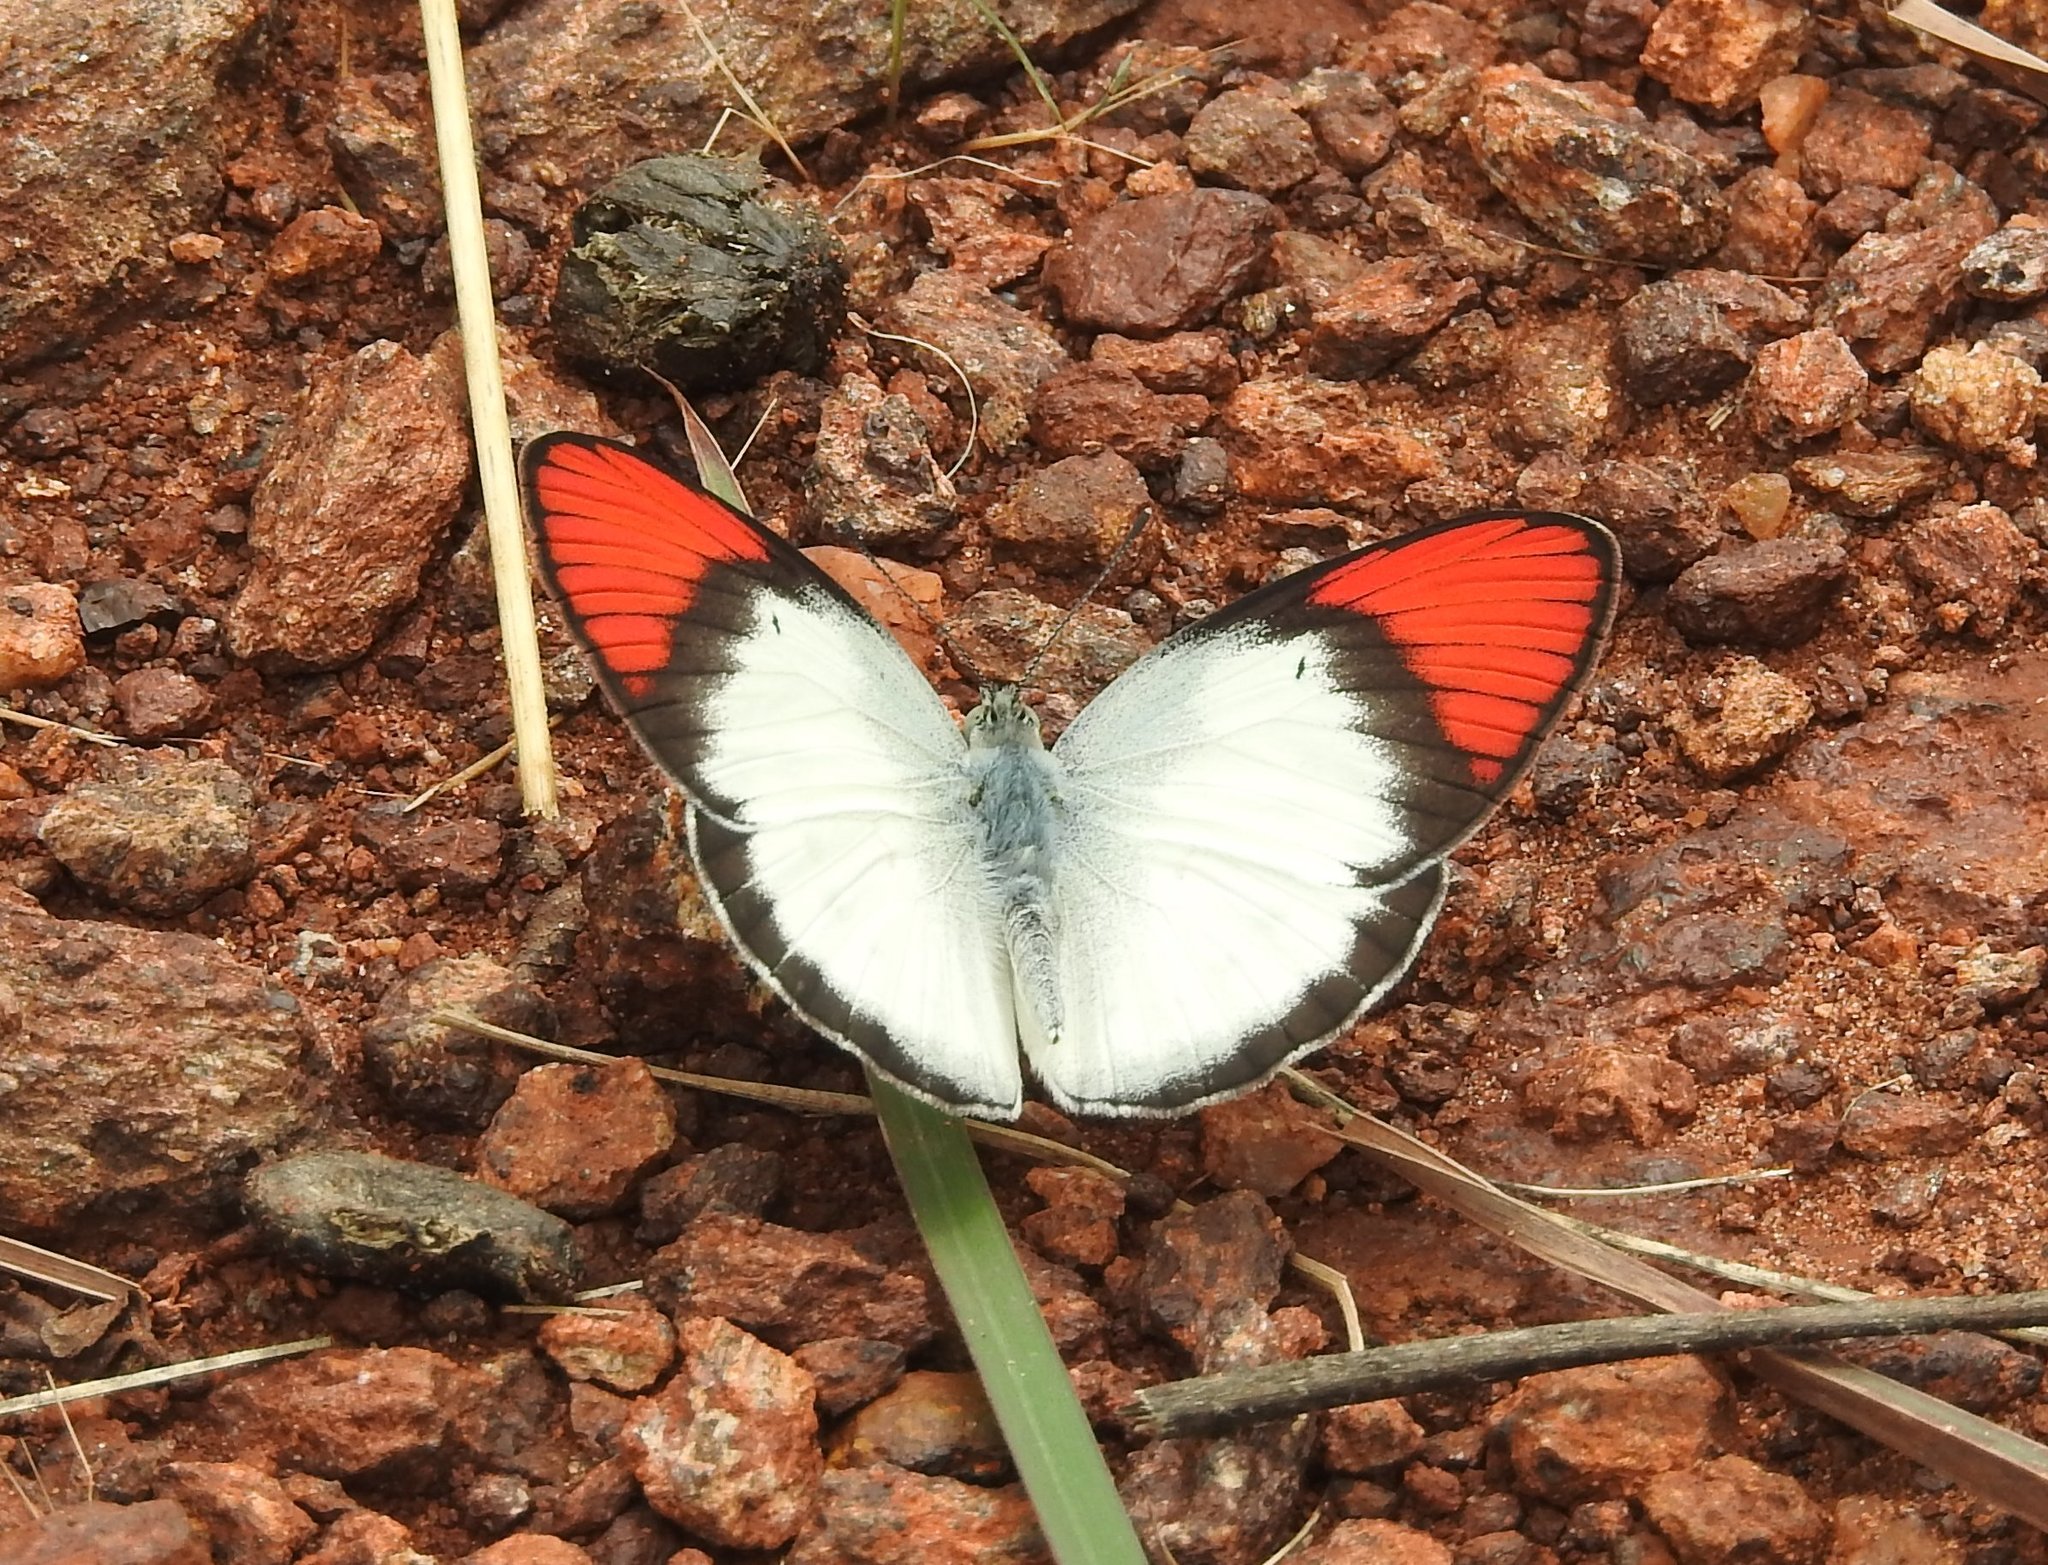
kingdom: Animalia
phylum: Arthropoda
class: Insecta
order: Lepidoptera
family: Pieridae
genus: Colotis
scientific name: Colotis danae
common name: Crimson tip
